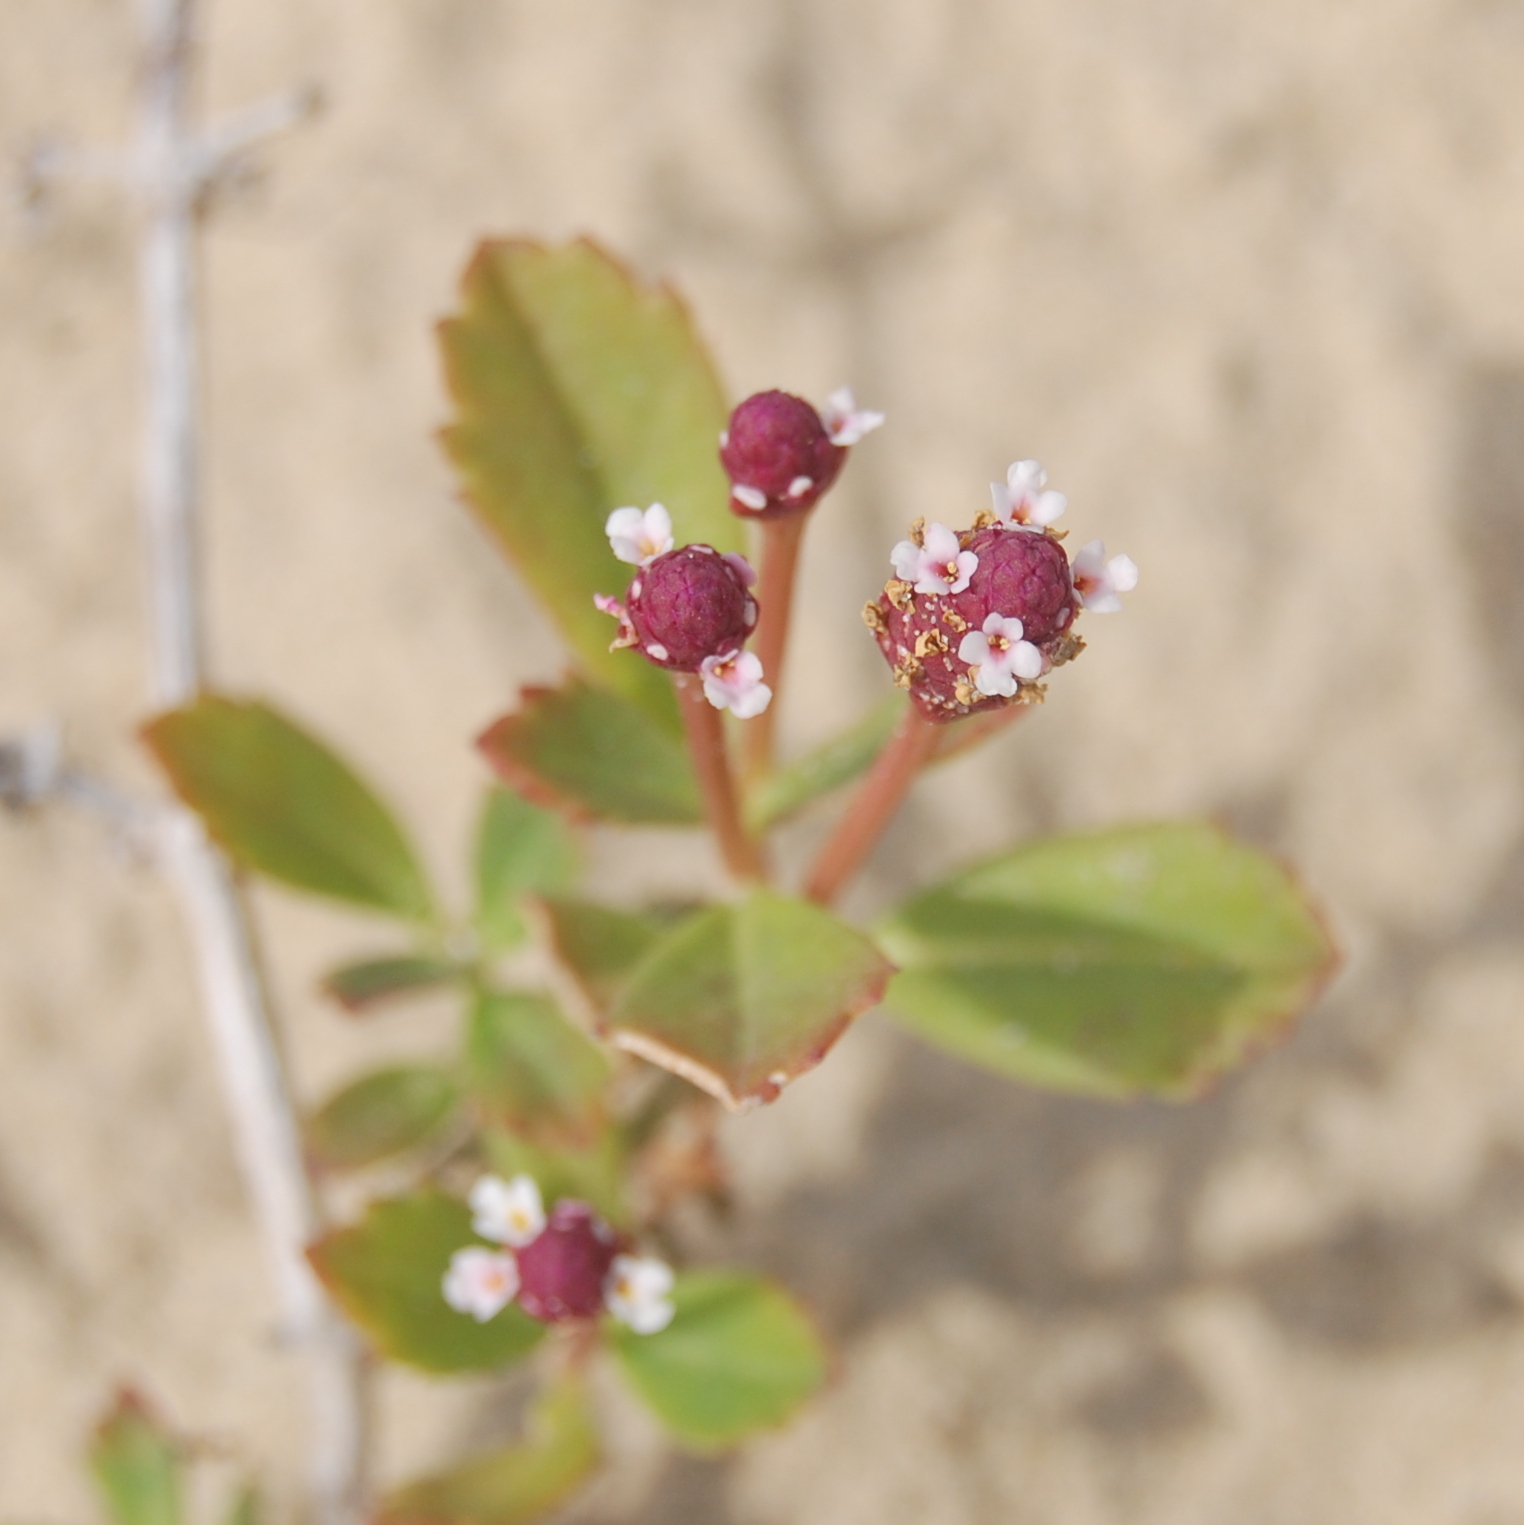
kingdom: Plantae
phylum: Tracheophyta
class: Magnoliopsida
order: Lamiales
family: Verbenaceae
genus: Phyla
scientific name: Phyla nodiflora
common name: Frogfruit
